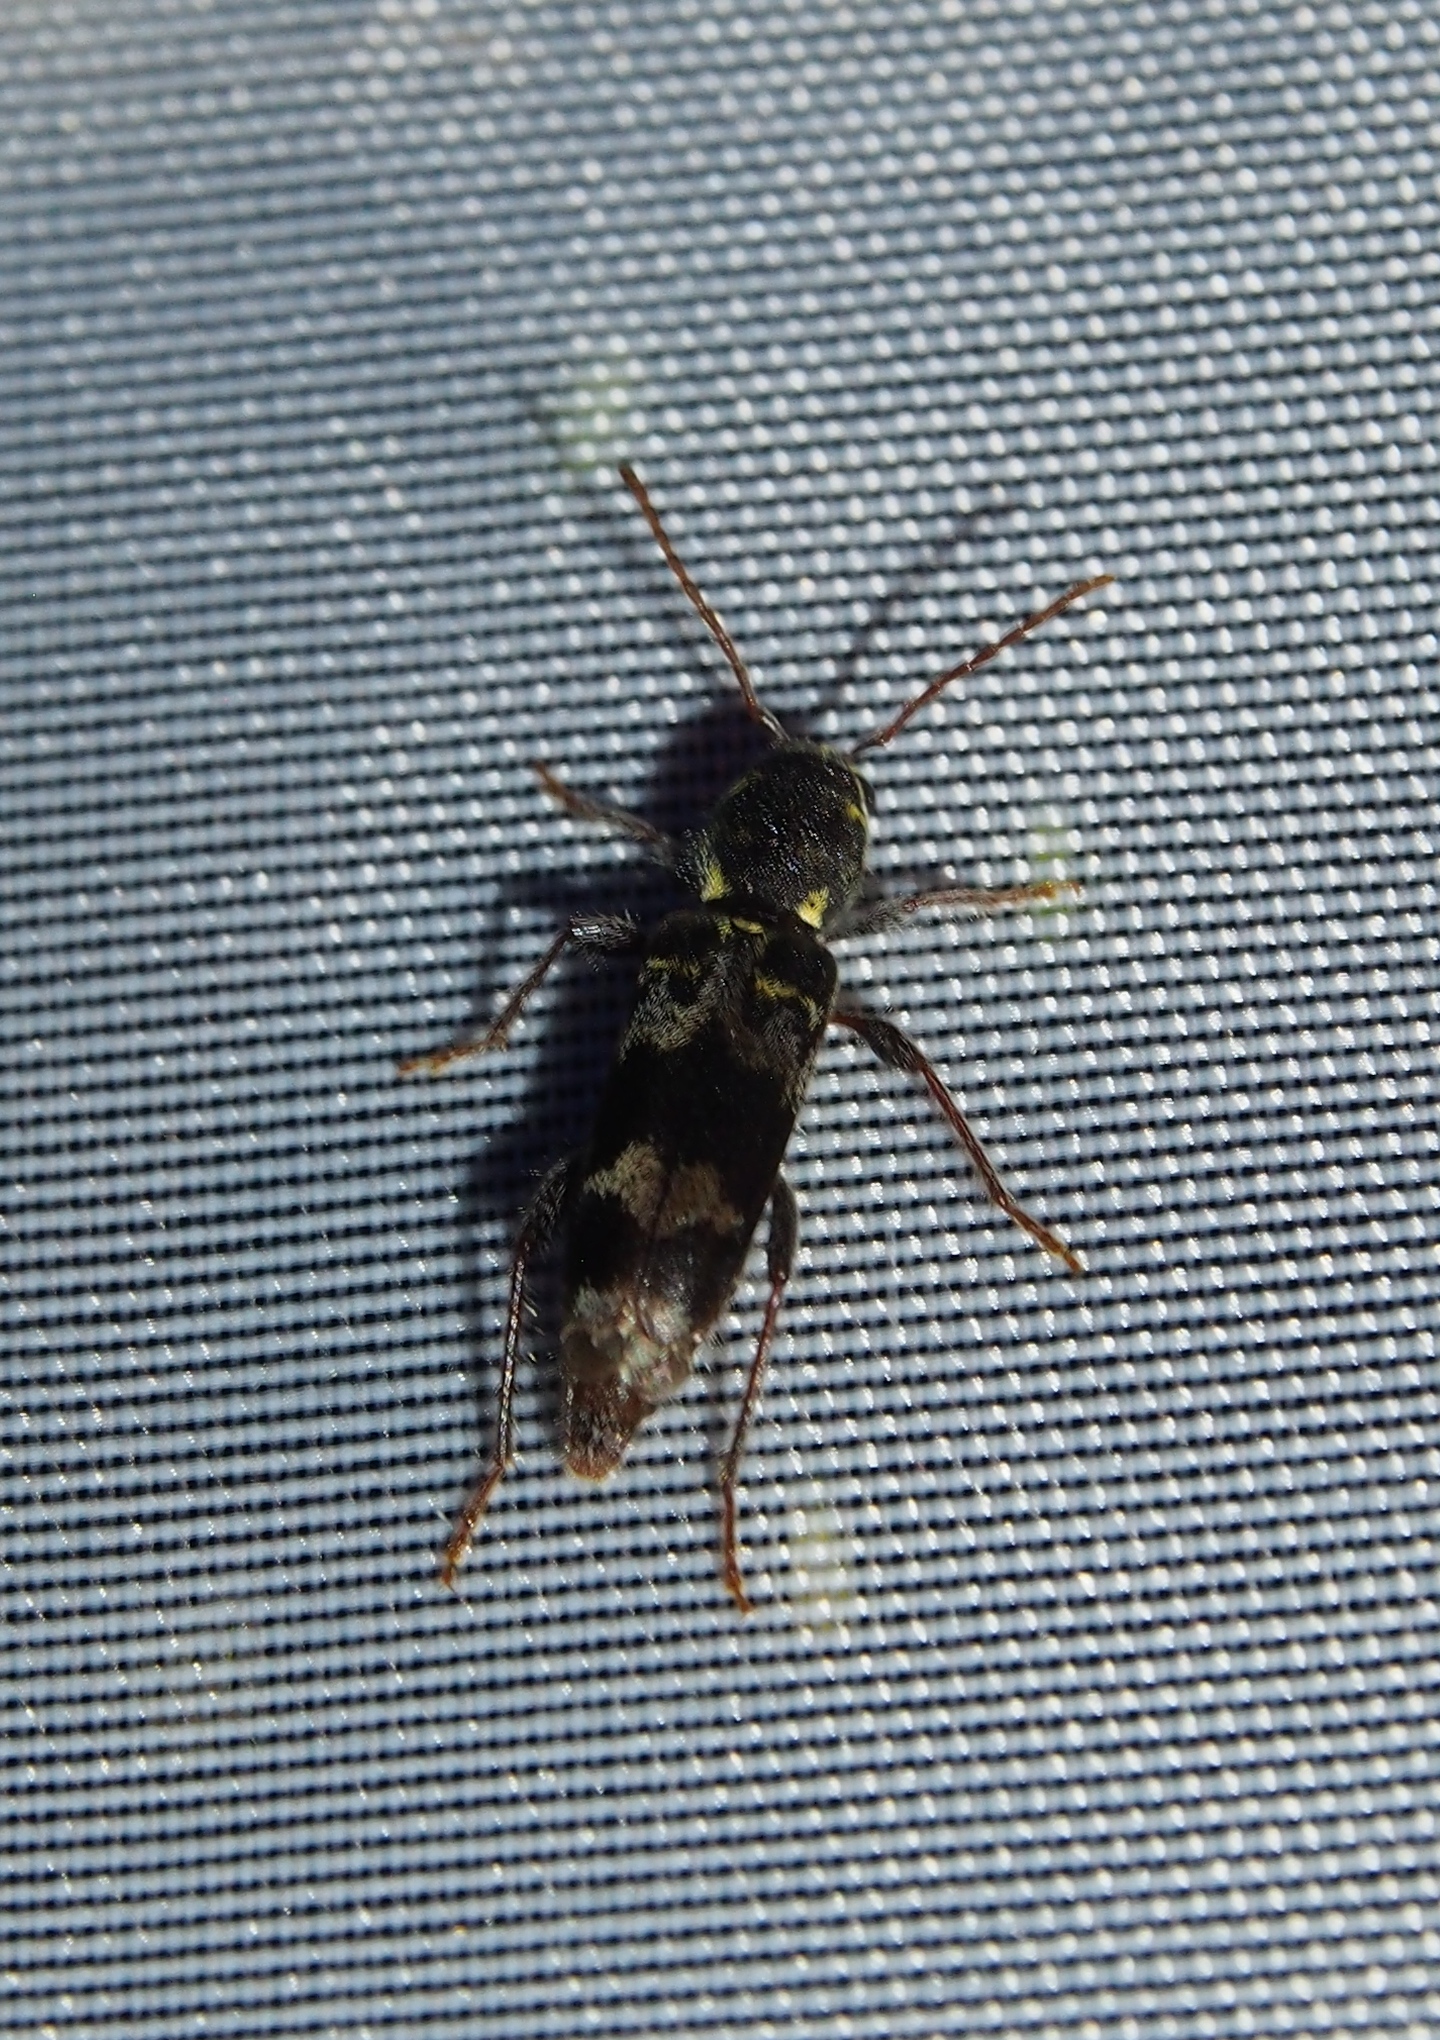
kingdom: Animalia
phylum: Arthropoda
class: Insecta
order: Coleoptera
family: Cerambycidae
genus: Xylotrechus
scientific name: Xylotrechus colonus
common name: Long-horned beetle
